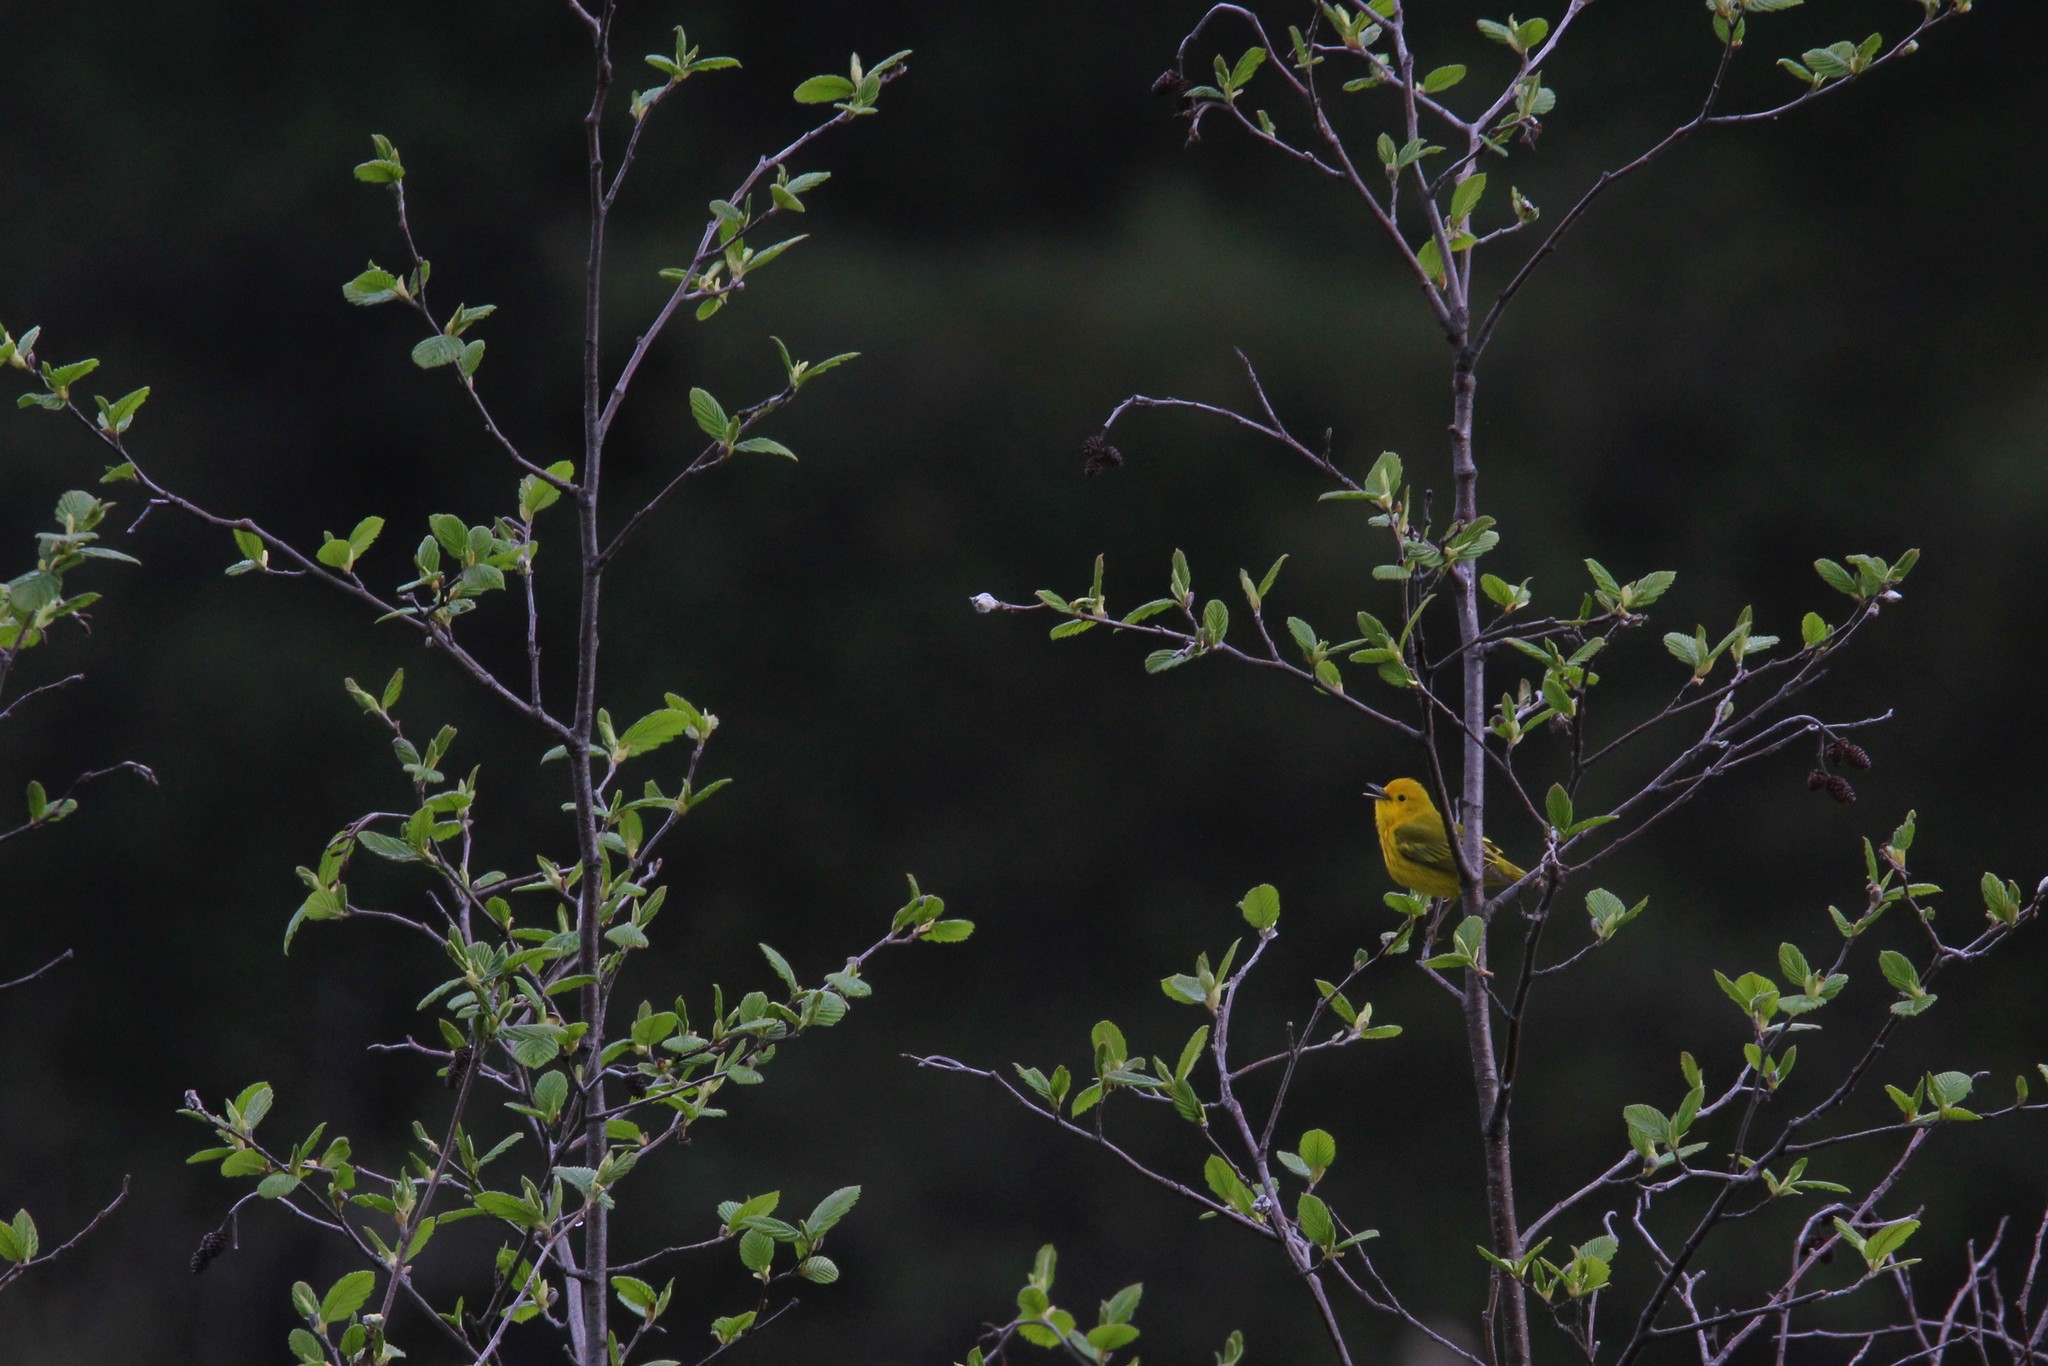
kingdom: Animalia
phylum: Chordata
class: Aves
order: Passeriformes
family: Parulidae
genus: Setophaga
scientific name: Setophaga petechia
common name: Yellow warbler
